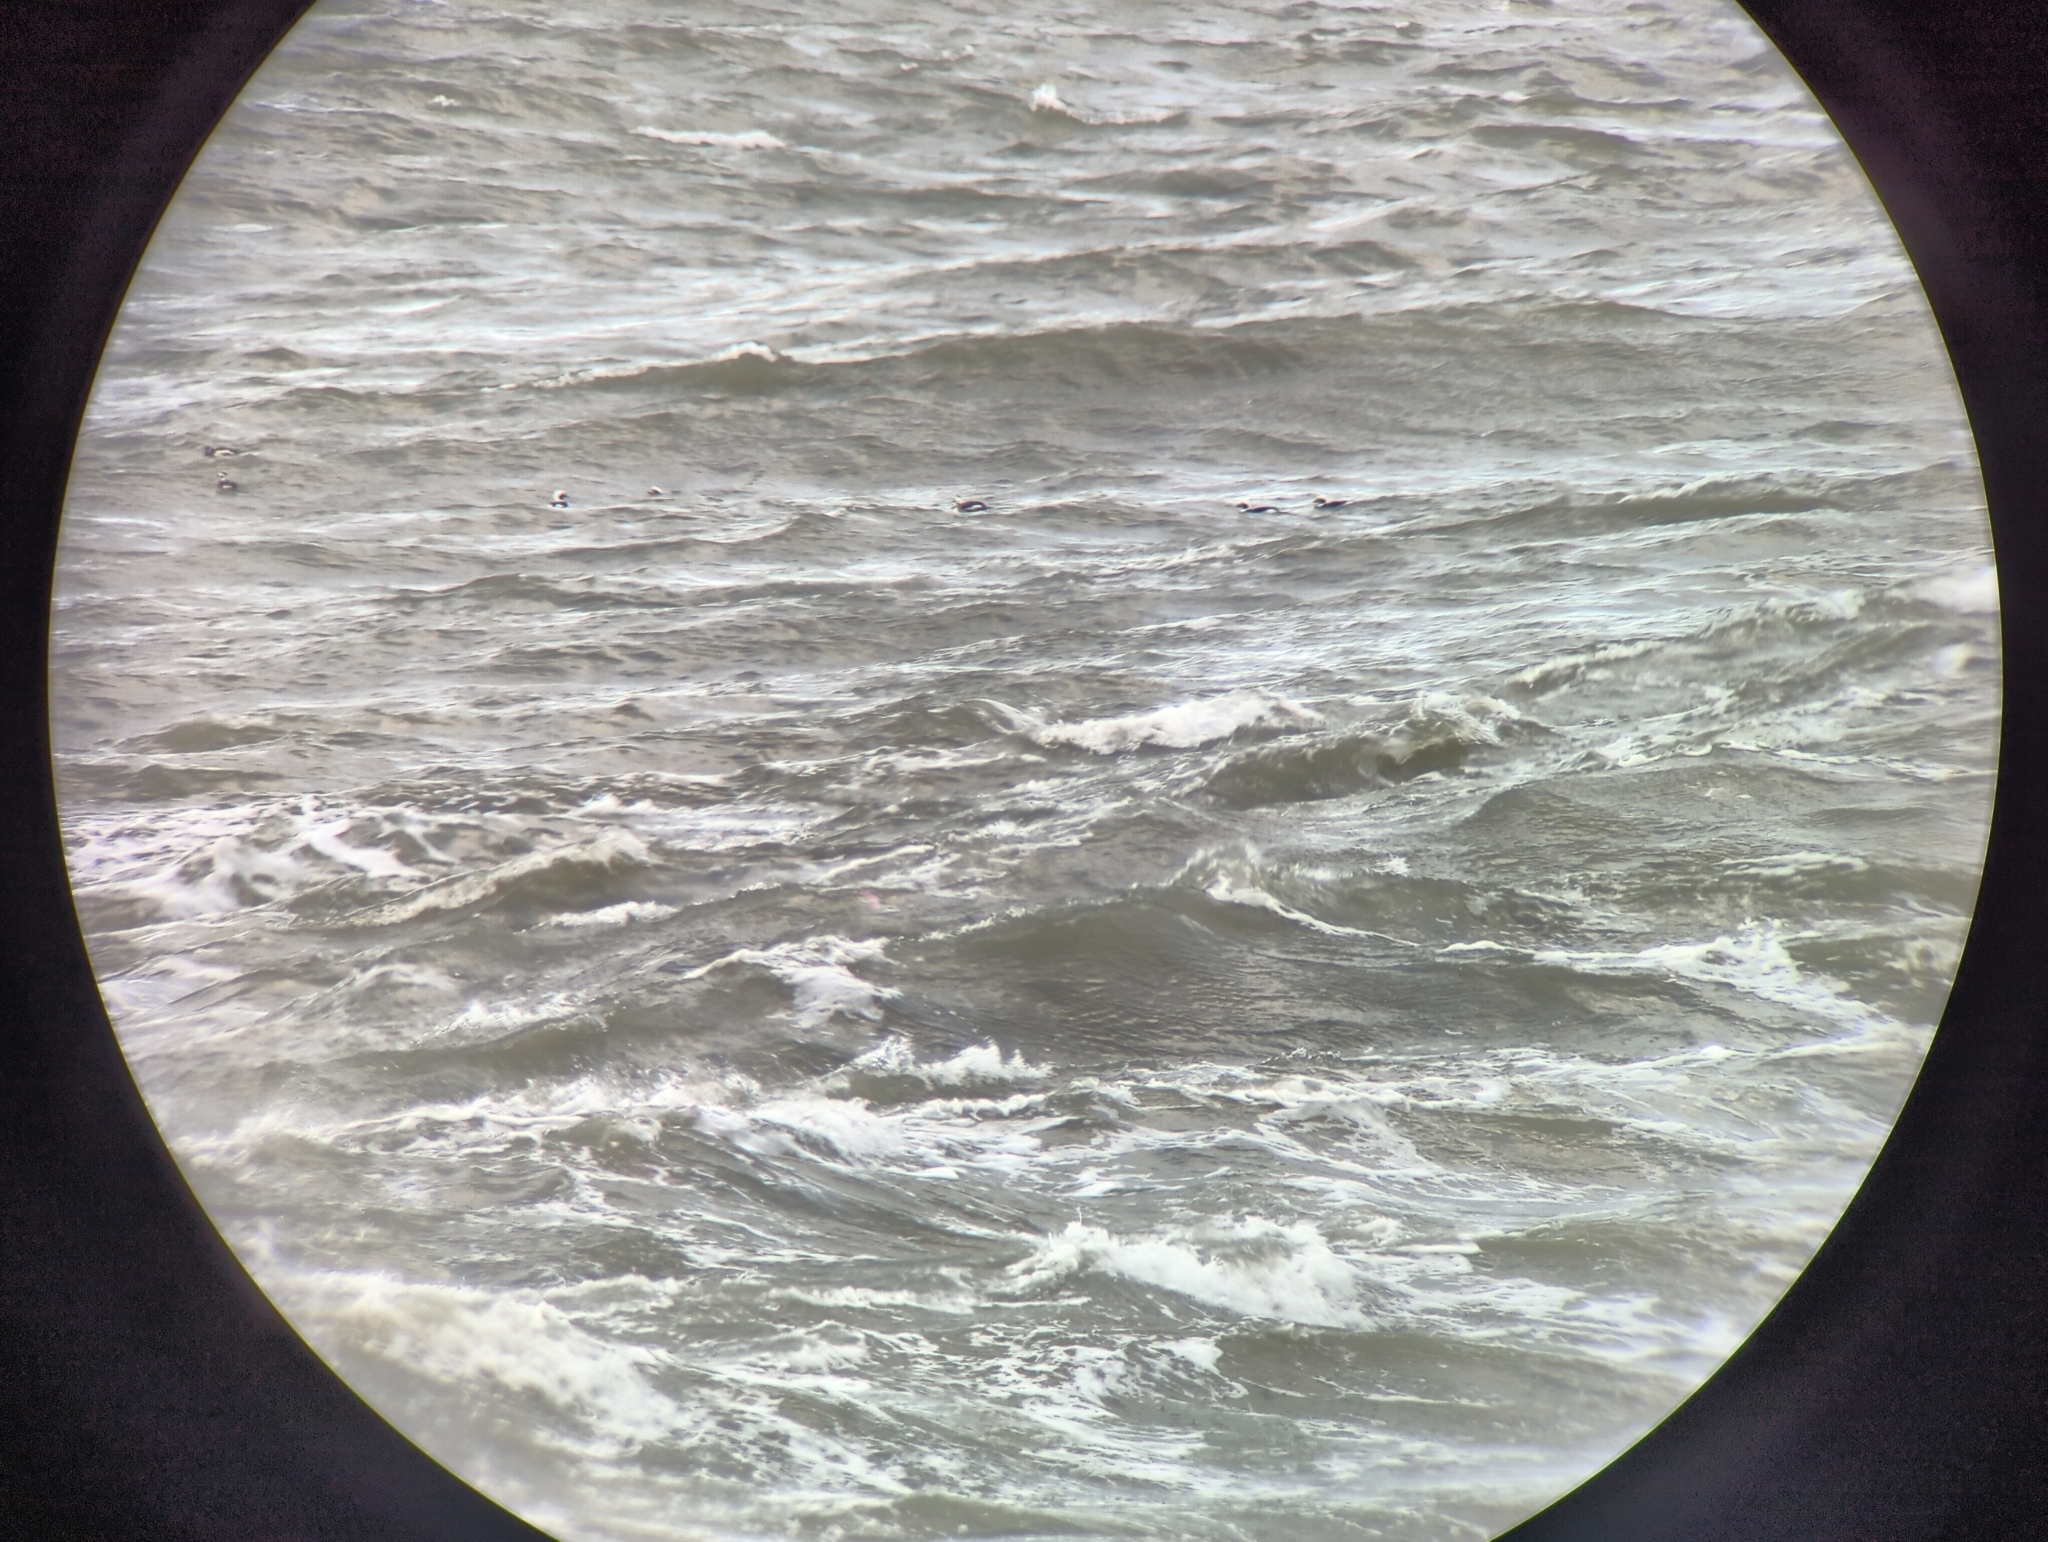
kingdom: Animalia
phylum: Chordata
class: Aves
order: Anseriformes
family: Anatidae
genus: Clangula
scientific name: Clangula hyemalis
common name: Long-tailed duck
